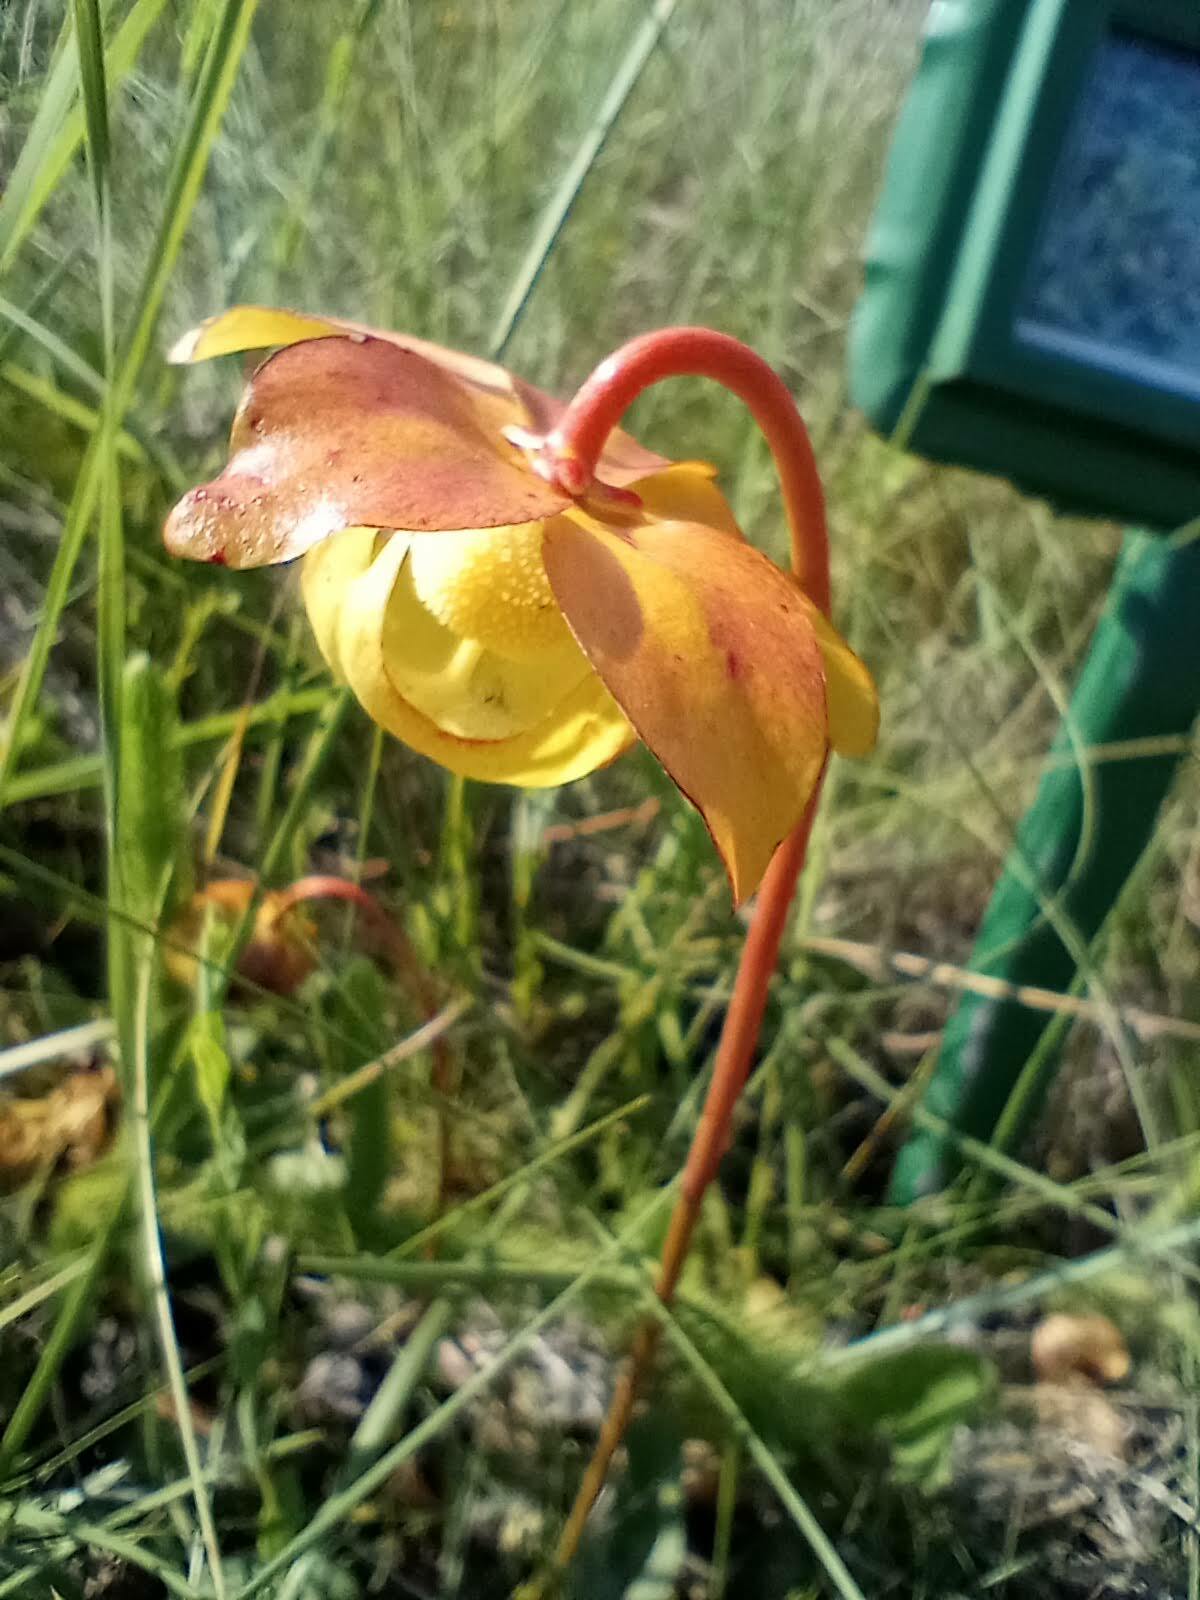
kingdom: Plantae
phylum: Tracheophyta
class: Magnoliopsida
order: Ericales
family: Sarraceniaceae
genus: Sarracenia
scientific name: Sarracenia psittacina
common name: Parrot pitcherplant
